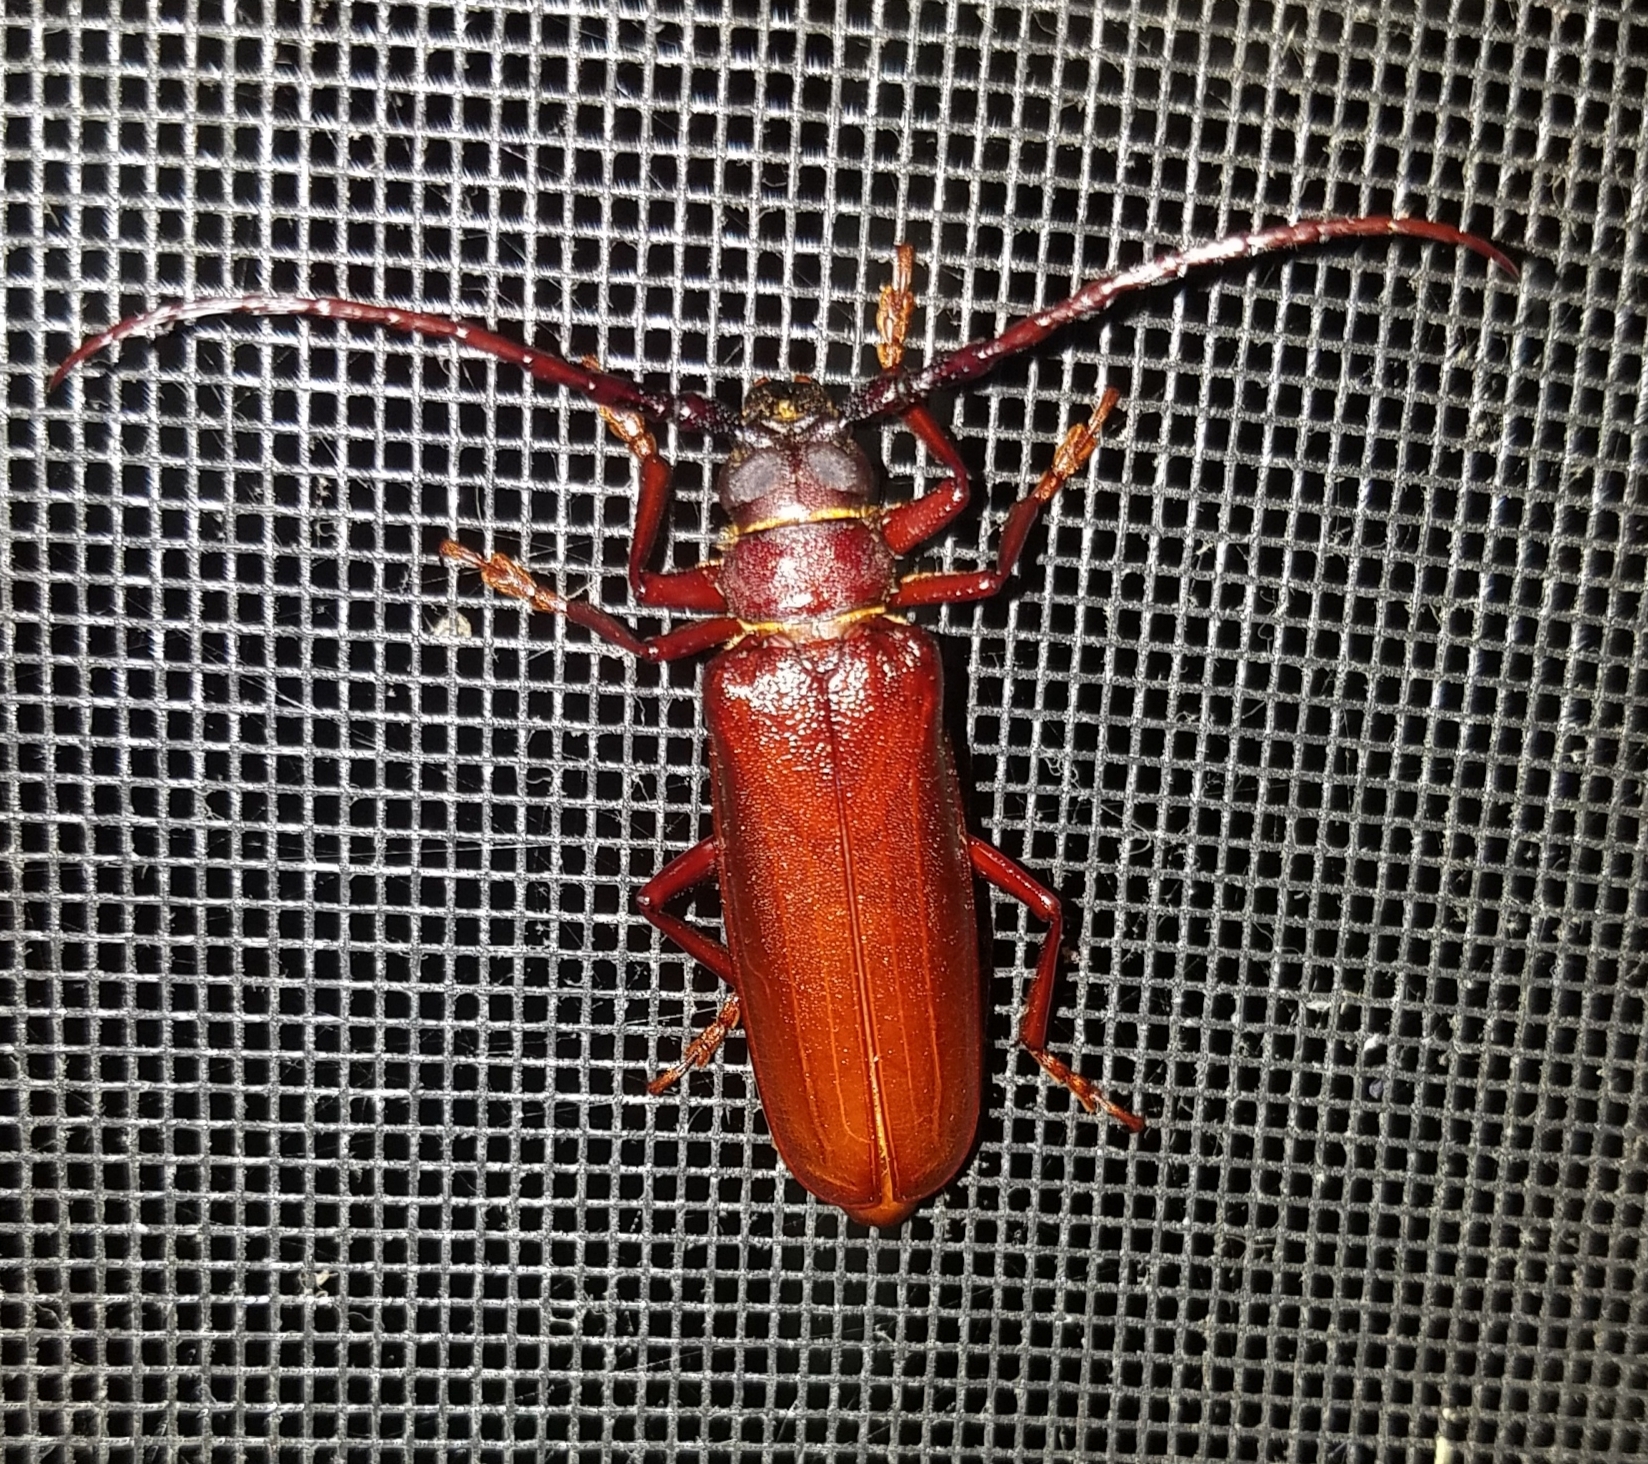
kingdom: Animalia
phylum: Arthropoda
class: Insecta
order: Coleoptera
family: Cerambycidae
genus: Orthosoma
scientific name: Orthosoma brunneum
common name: Brown prionid beetle
